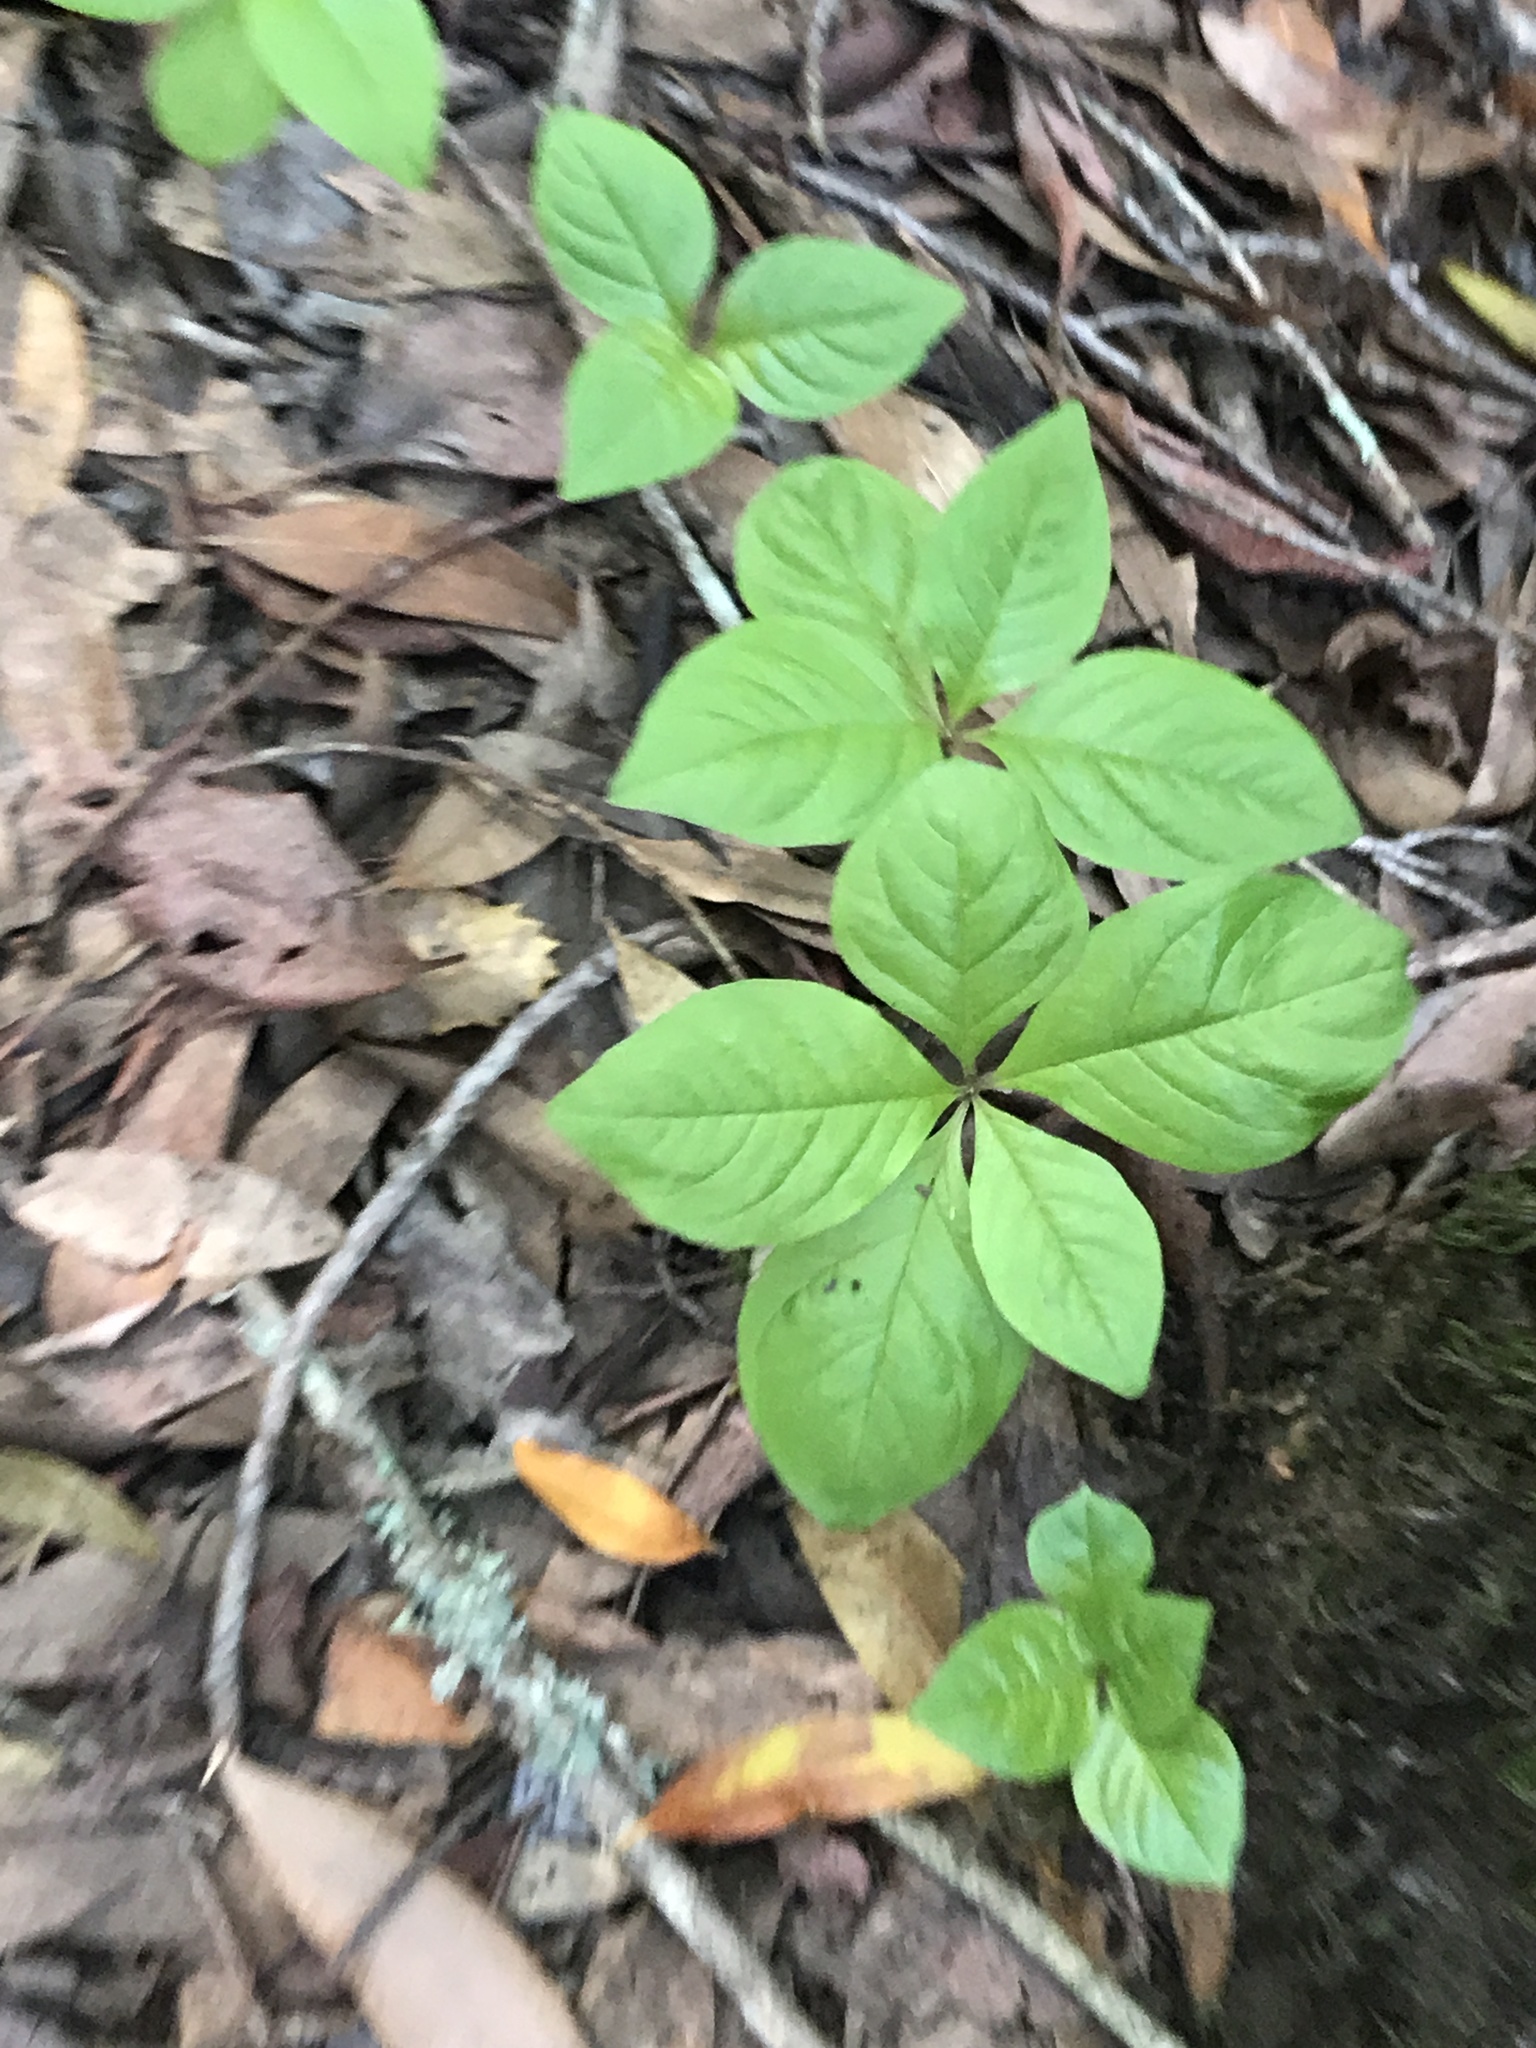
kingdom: Plantae
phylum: Tracheophyta
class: Magnoliopsida
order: Ericales
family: Primulaceae
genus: Lysimachia
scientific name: Lysimachia latifolia
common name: Pacific starflower
